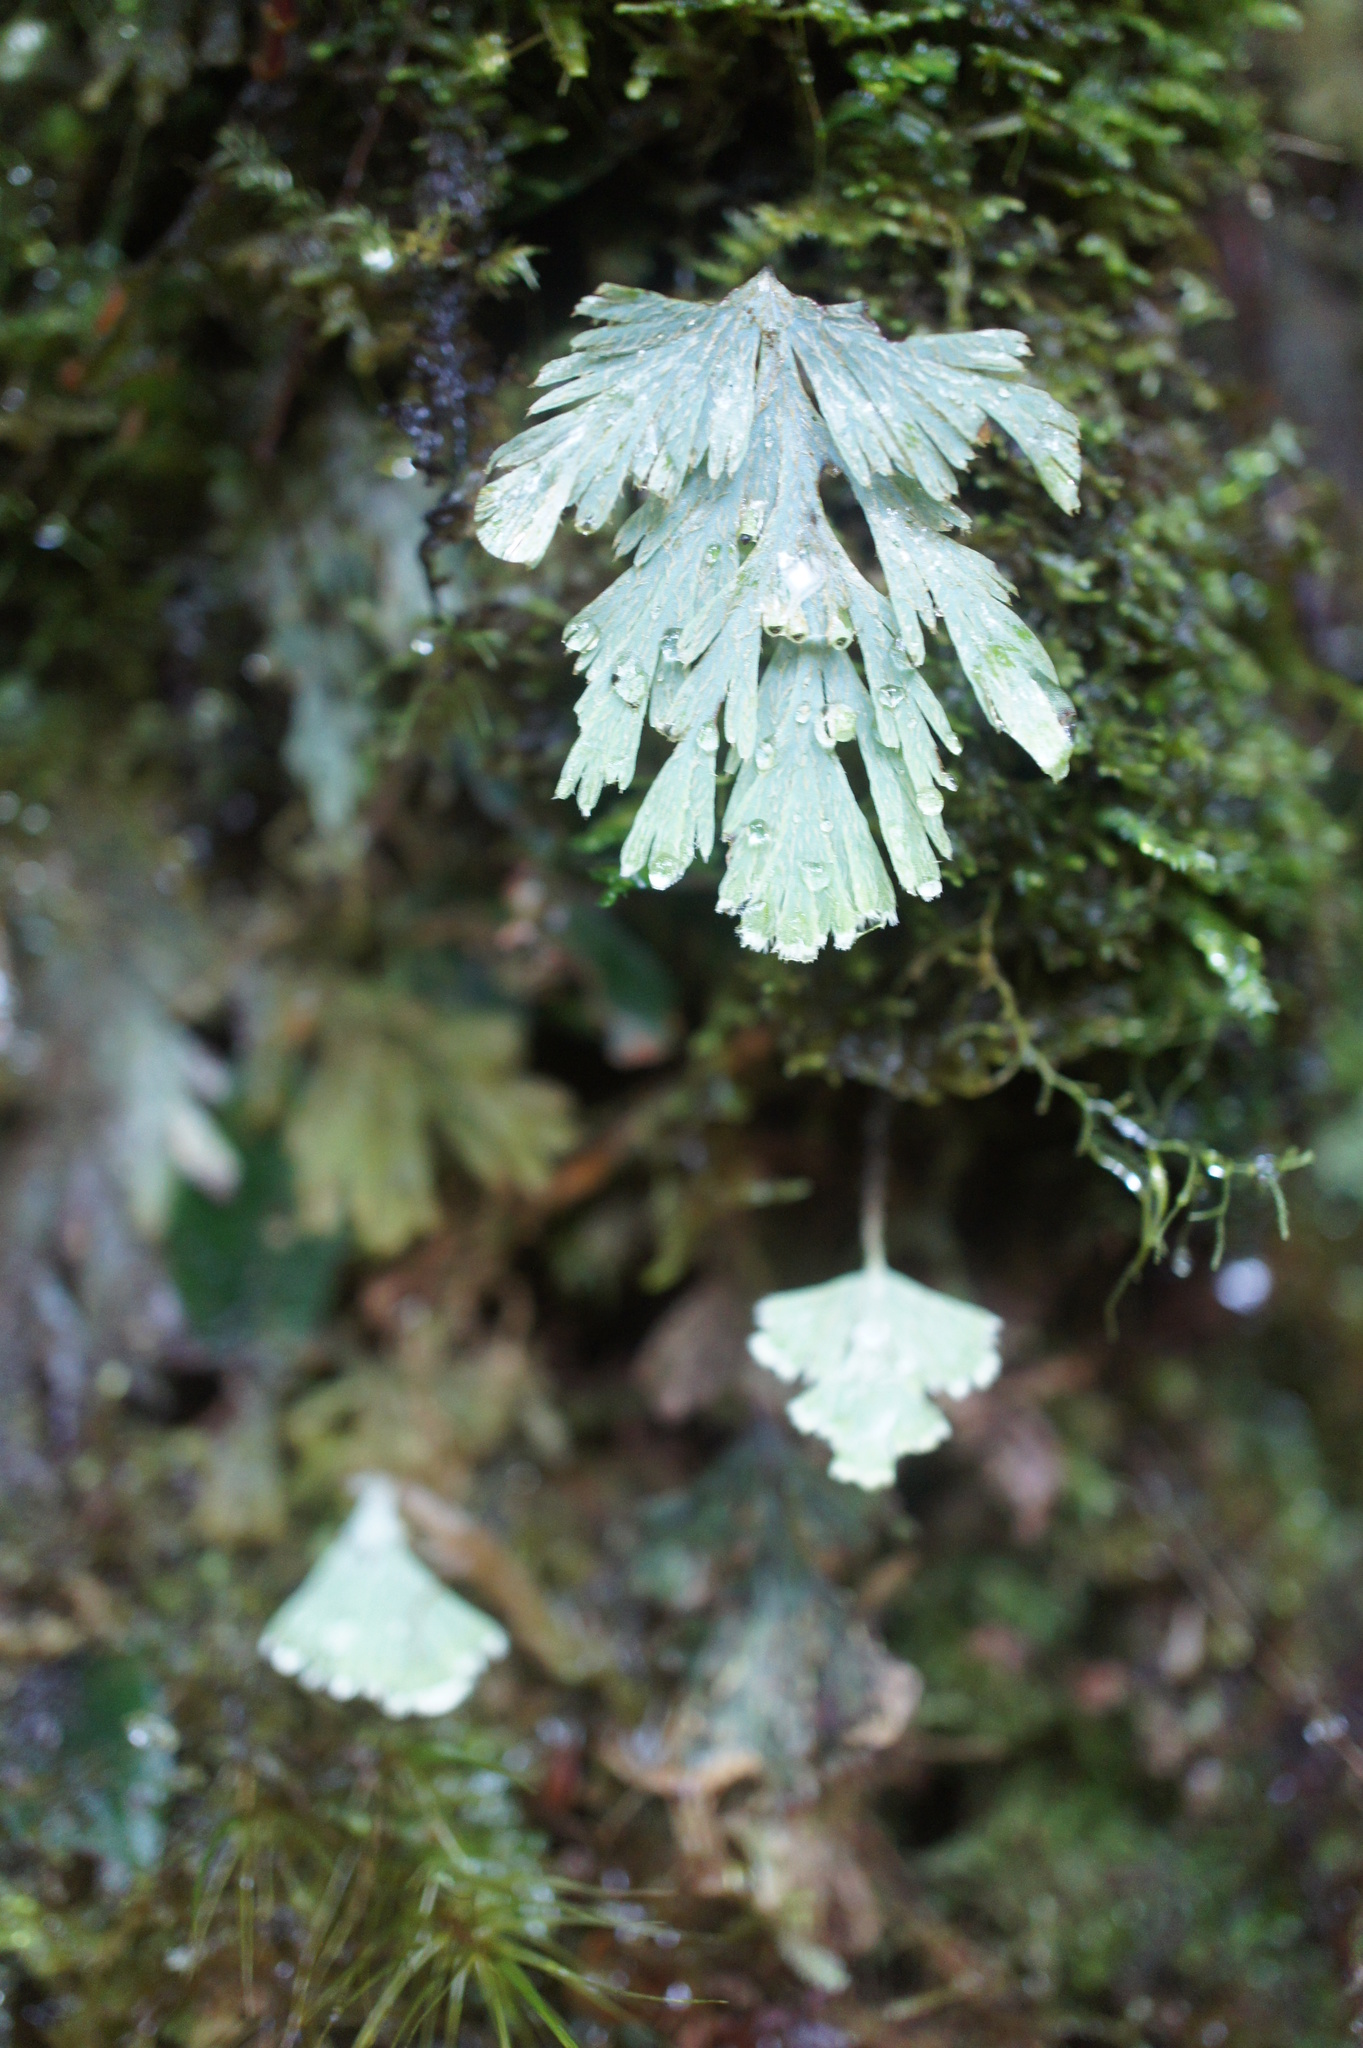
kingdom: Plantae
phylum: Tracheophyta
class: Polypodiopsida
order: Hymenophyllales
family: Hymenophyllaceae
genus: Hymenophyllum
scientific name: Hymenophyllum pallidum
